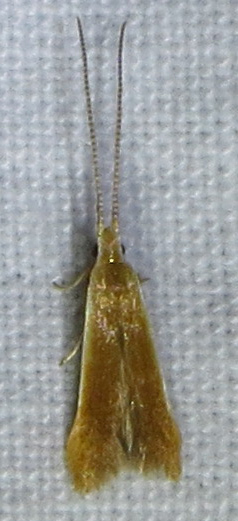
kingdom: Animalia
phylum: Arthropoda
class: Insecta
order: Lepidoptera
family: Coleophoridae
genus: Coleophora
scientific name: Coleophora laticornella
